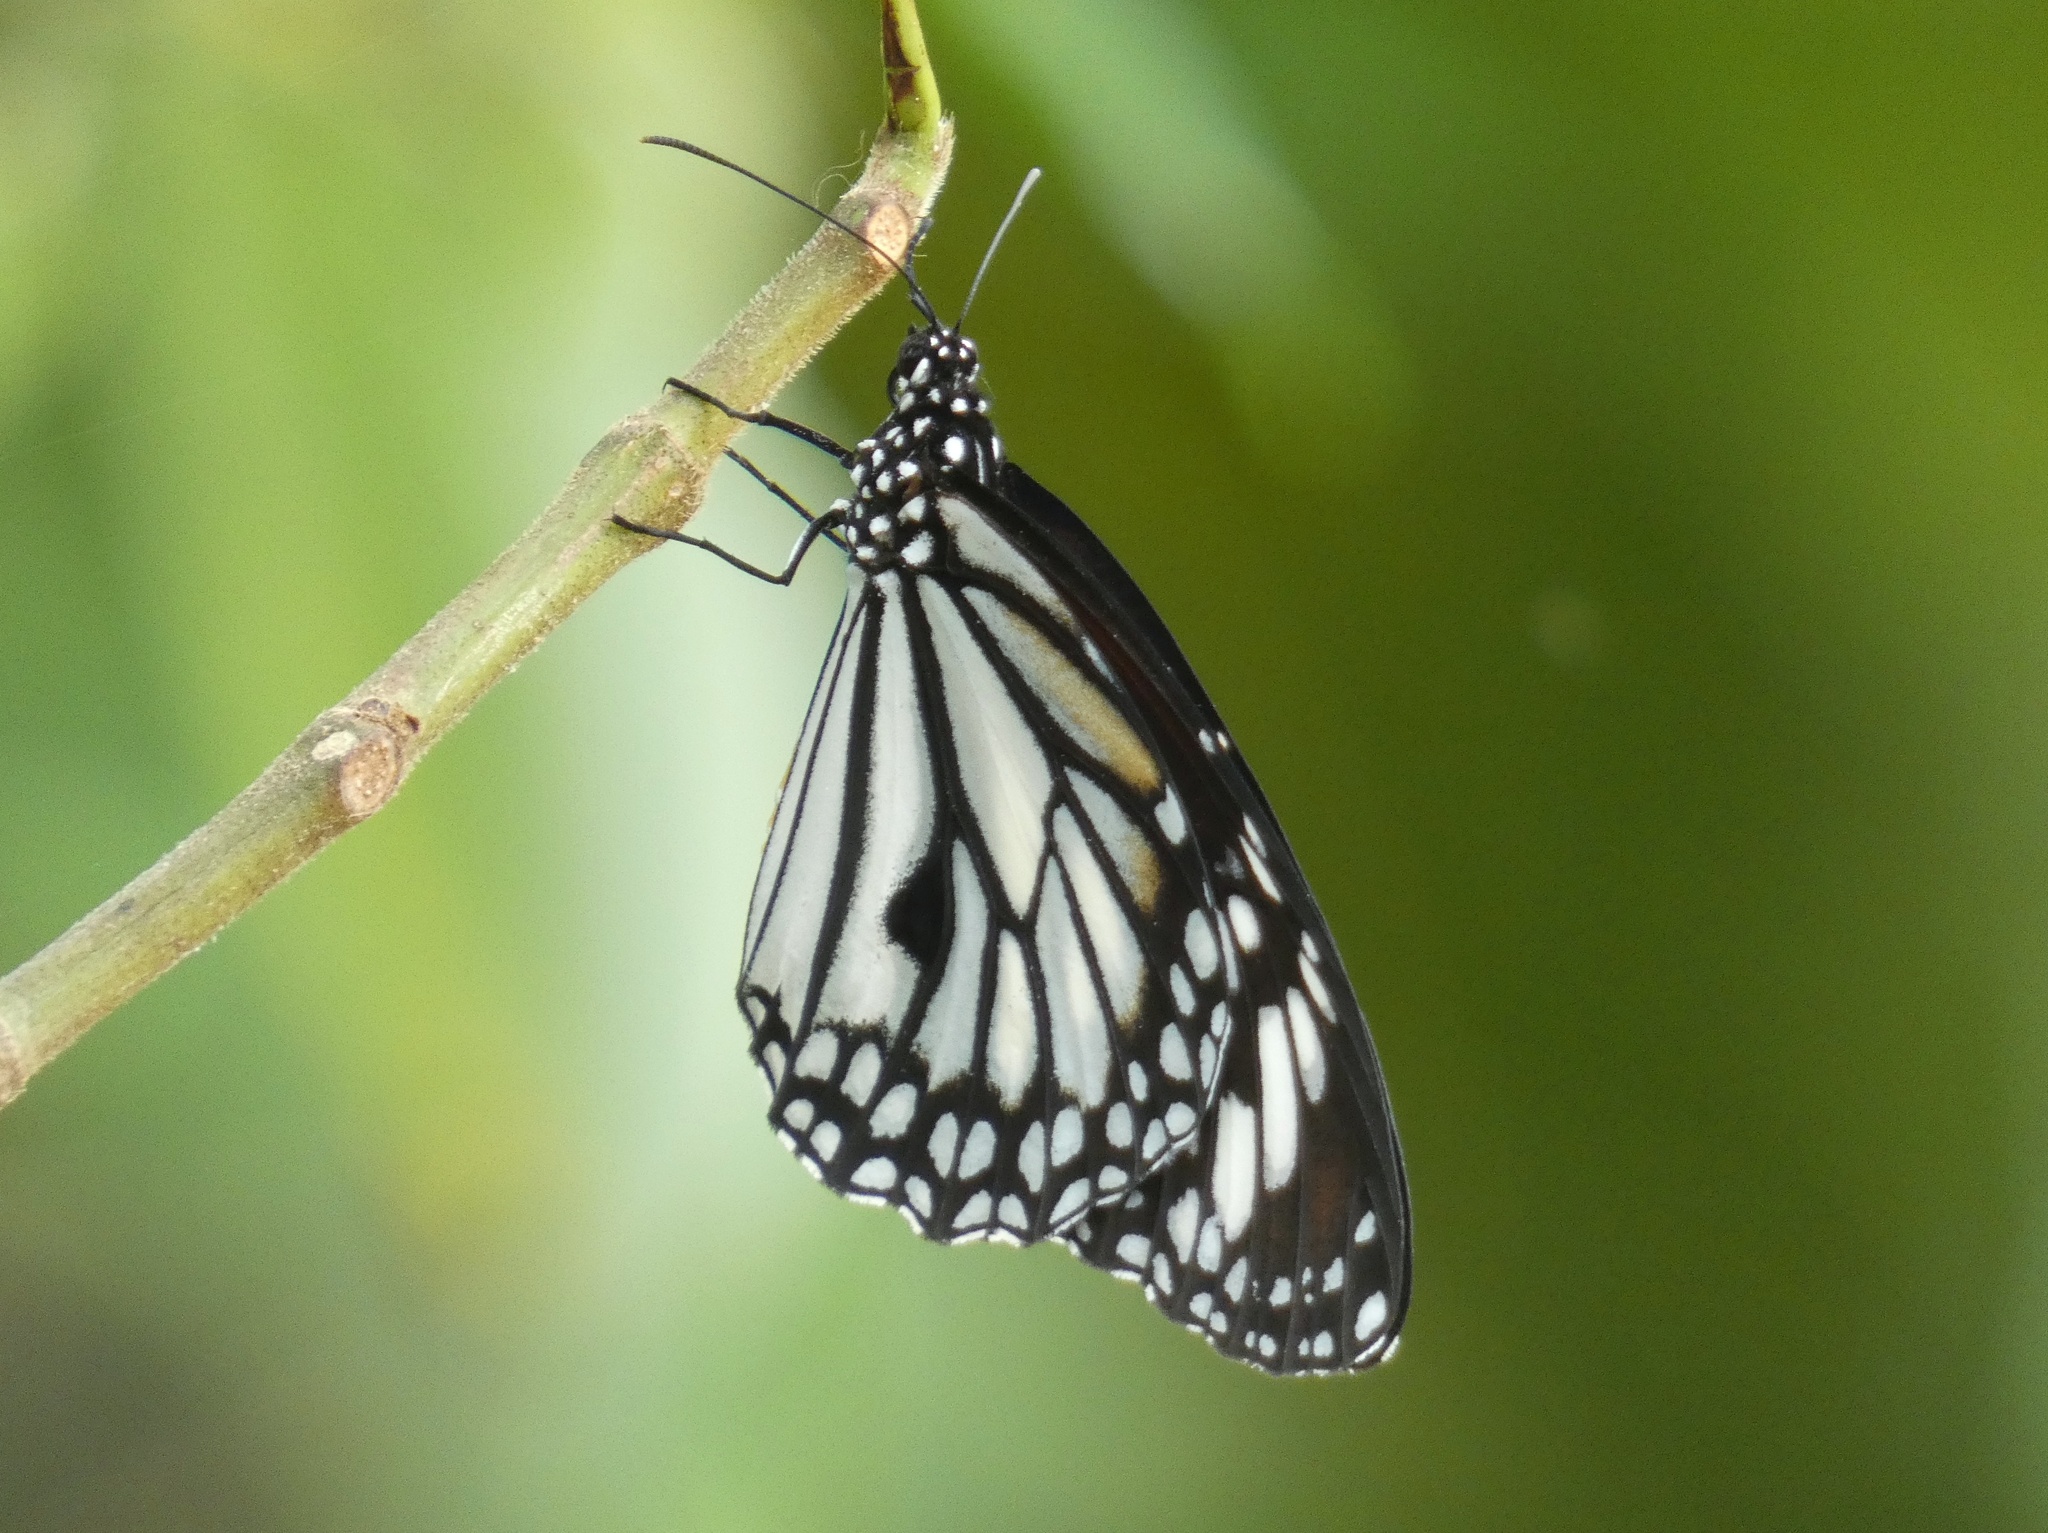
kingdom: Animalia
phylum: Arthropoda
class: Insecta
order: Lepidoptera
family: Nymphalidae
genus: Danaus
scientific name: Danaus melanippus
